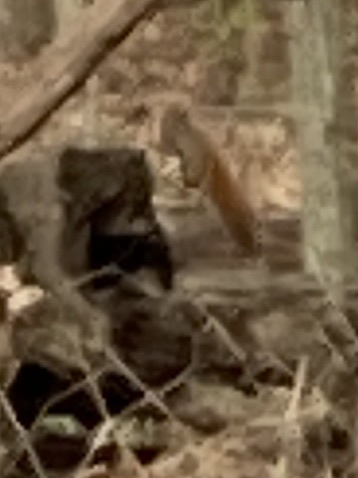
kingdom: Animalia
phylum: Chordata
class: Mammalia
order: Rodentia
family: Sciuridae
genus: Tamiasciurus
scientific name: Tamiasciurus hudsonicus
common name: Red squirrel
